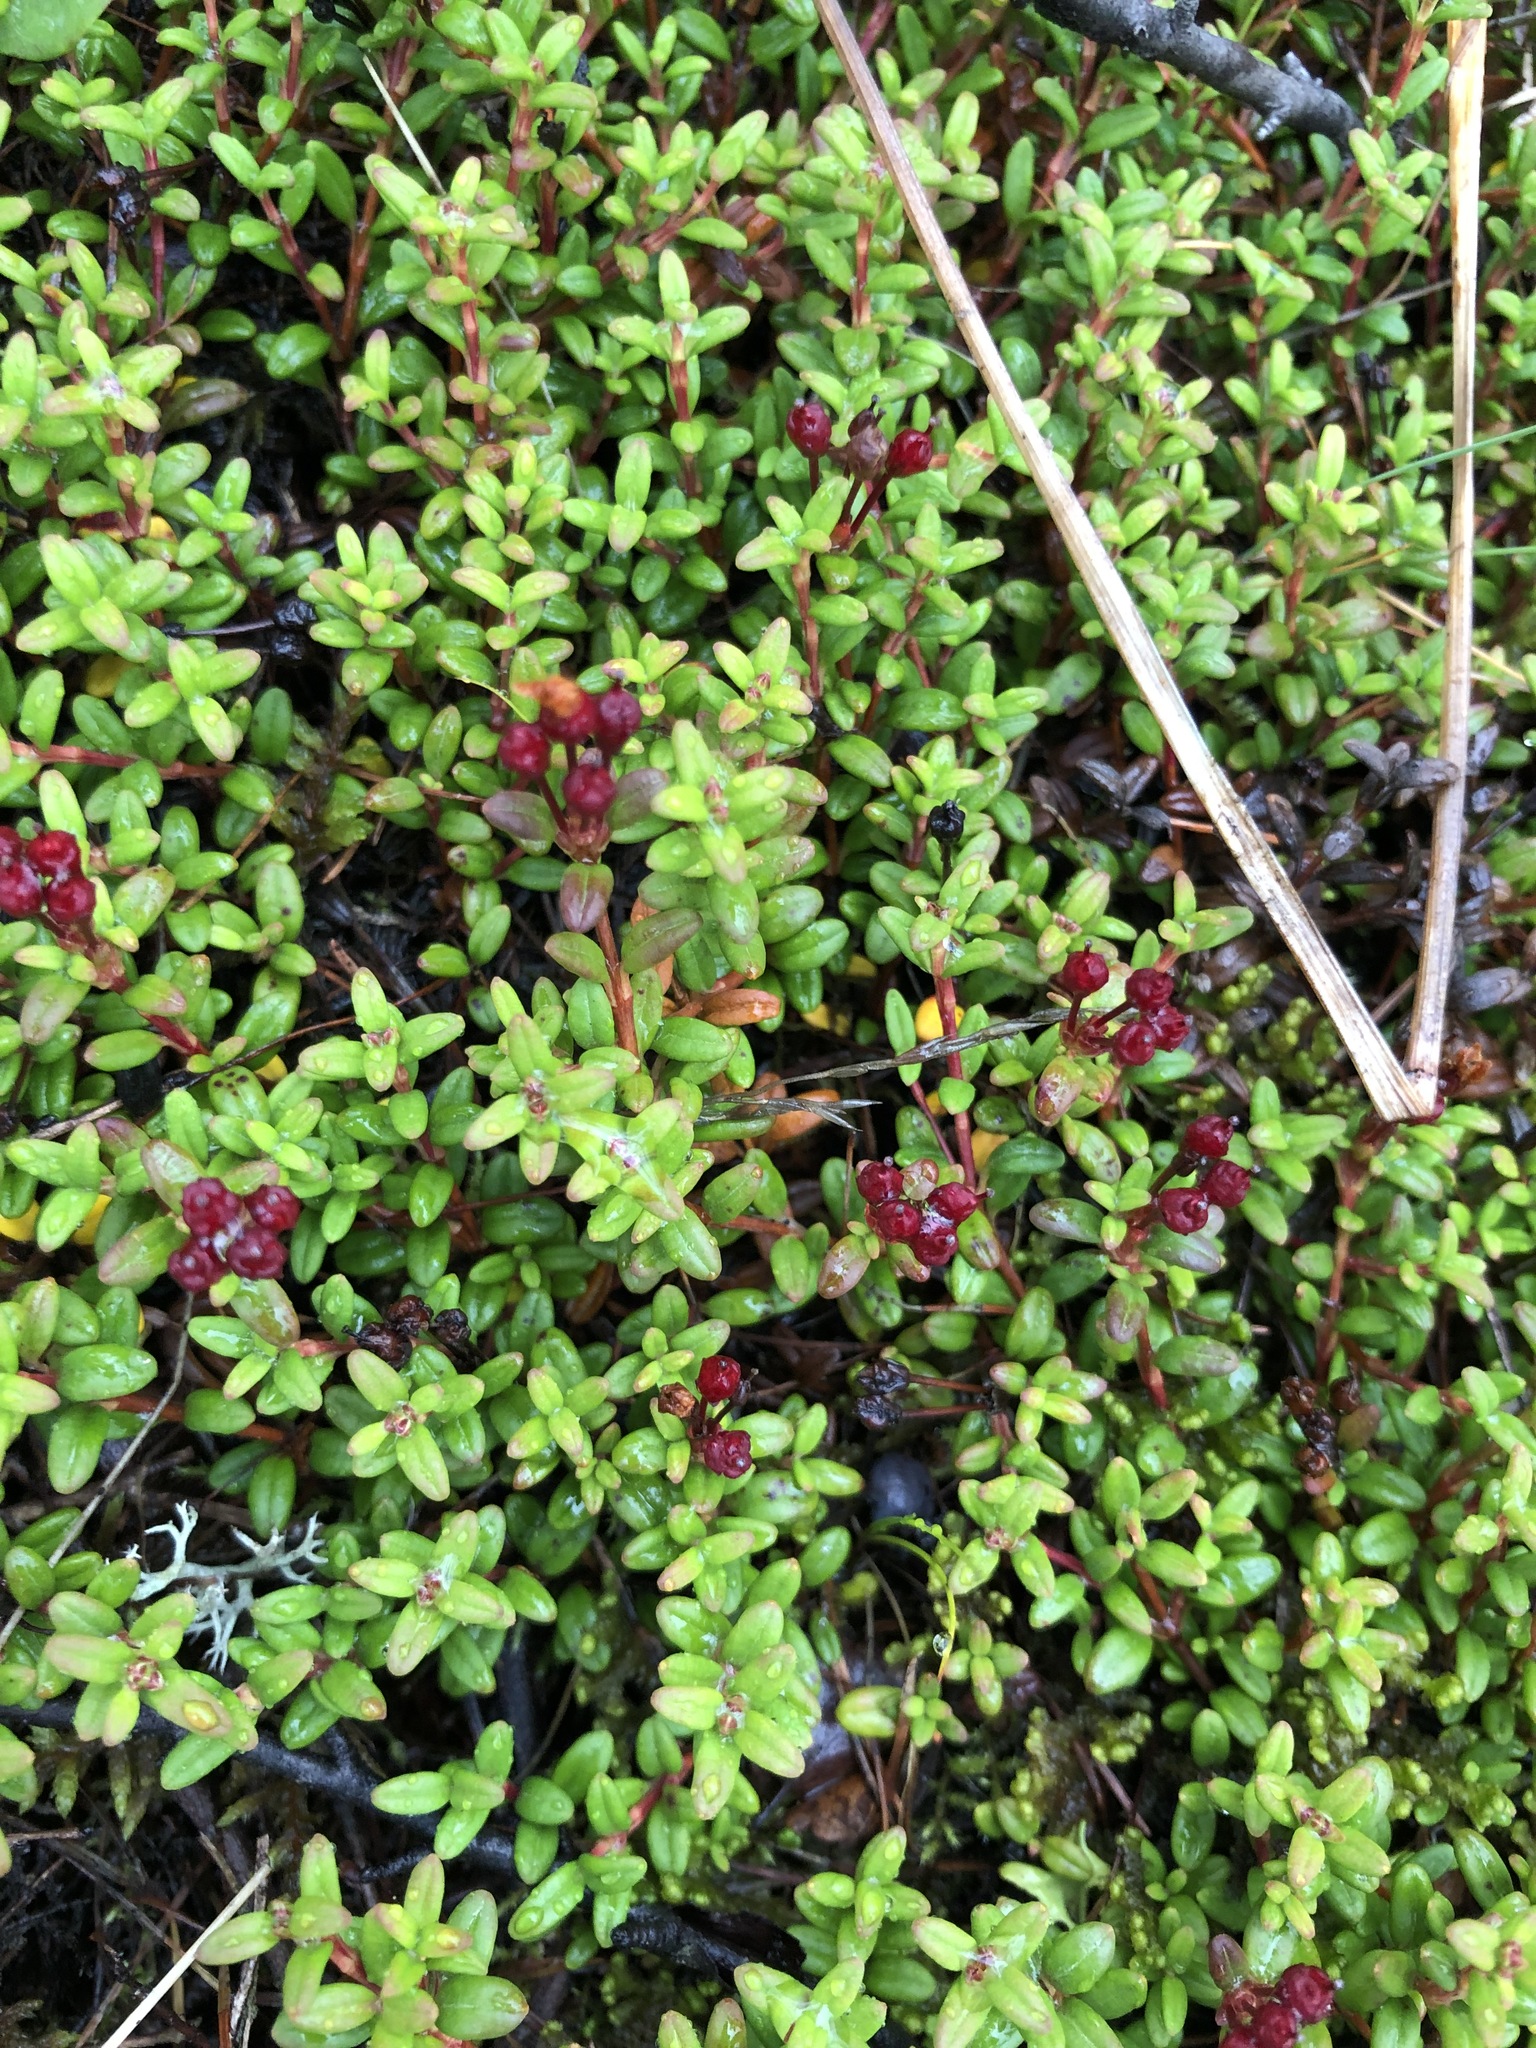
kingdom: Plantae
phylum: Tracheophyta
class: Magnoliopsida
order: Ericales
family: Ericaceae
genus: Kalmia
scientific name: Kalmia procumbens
